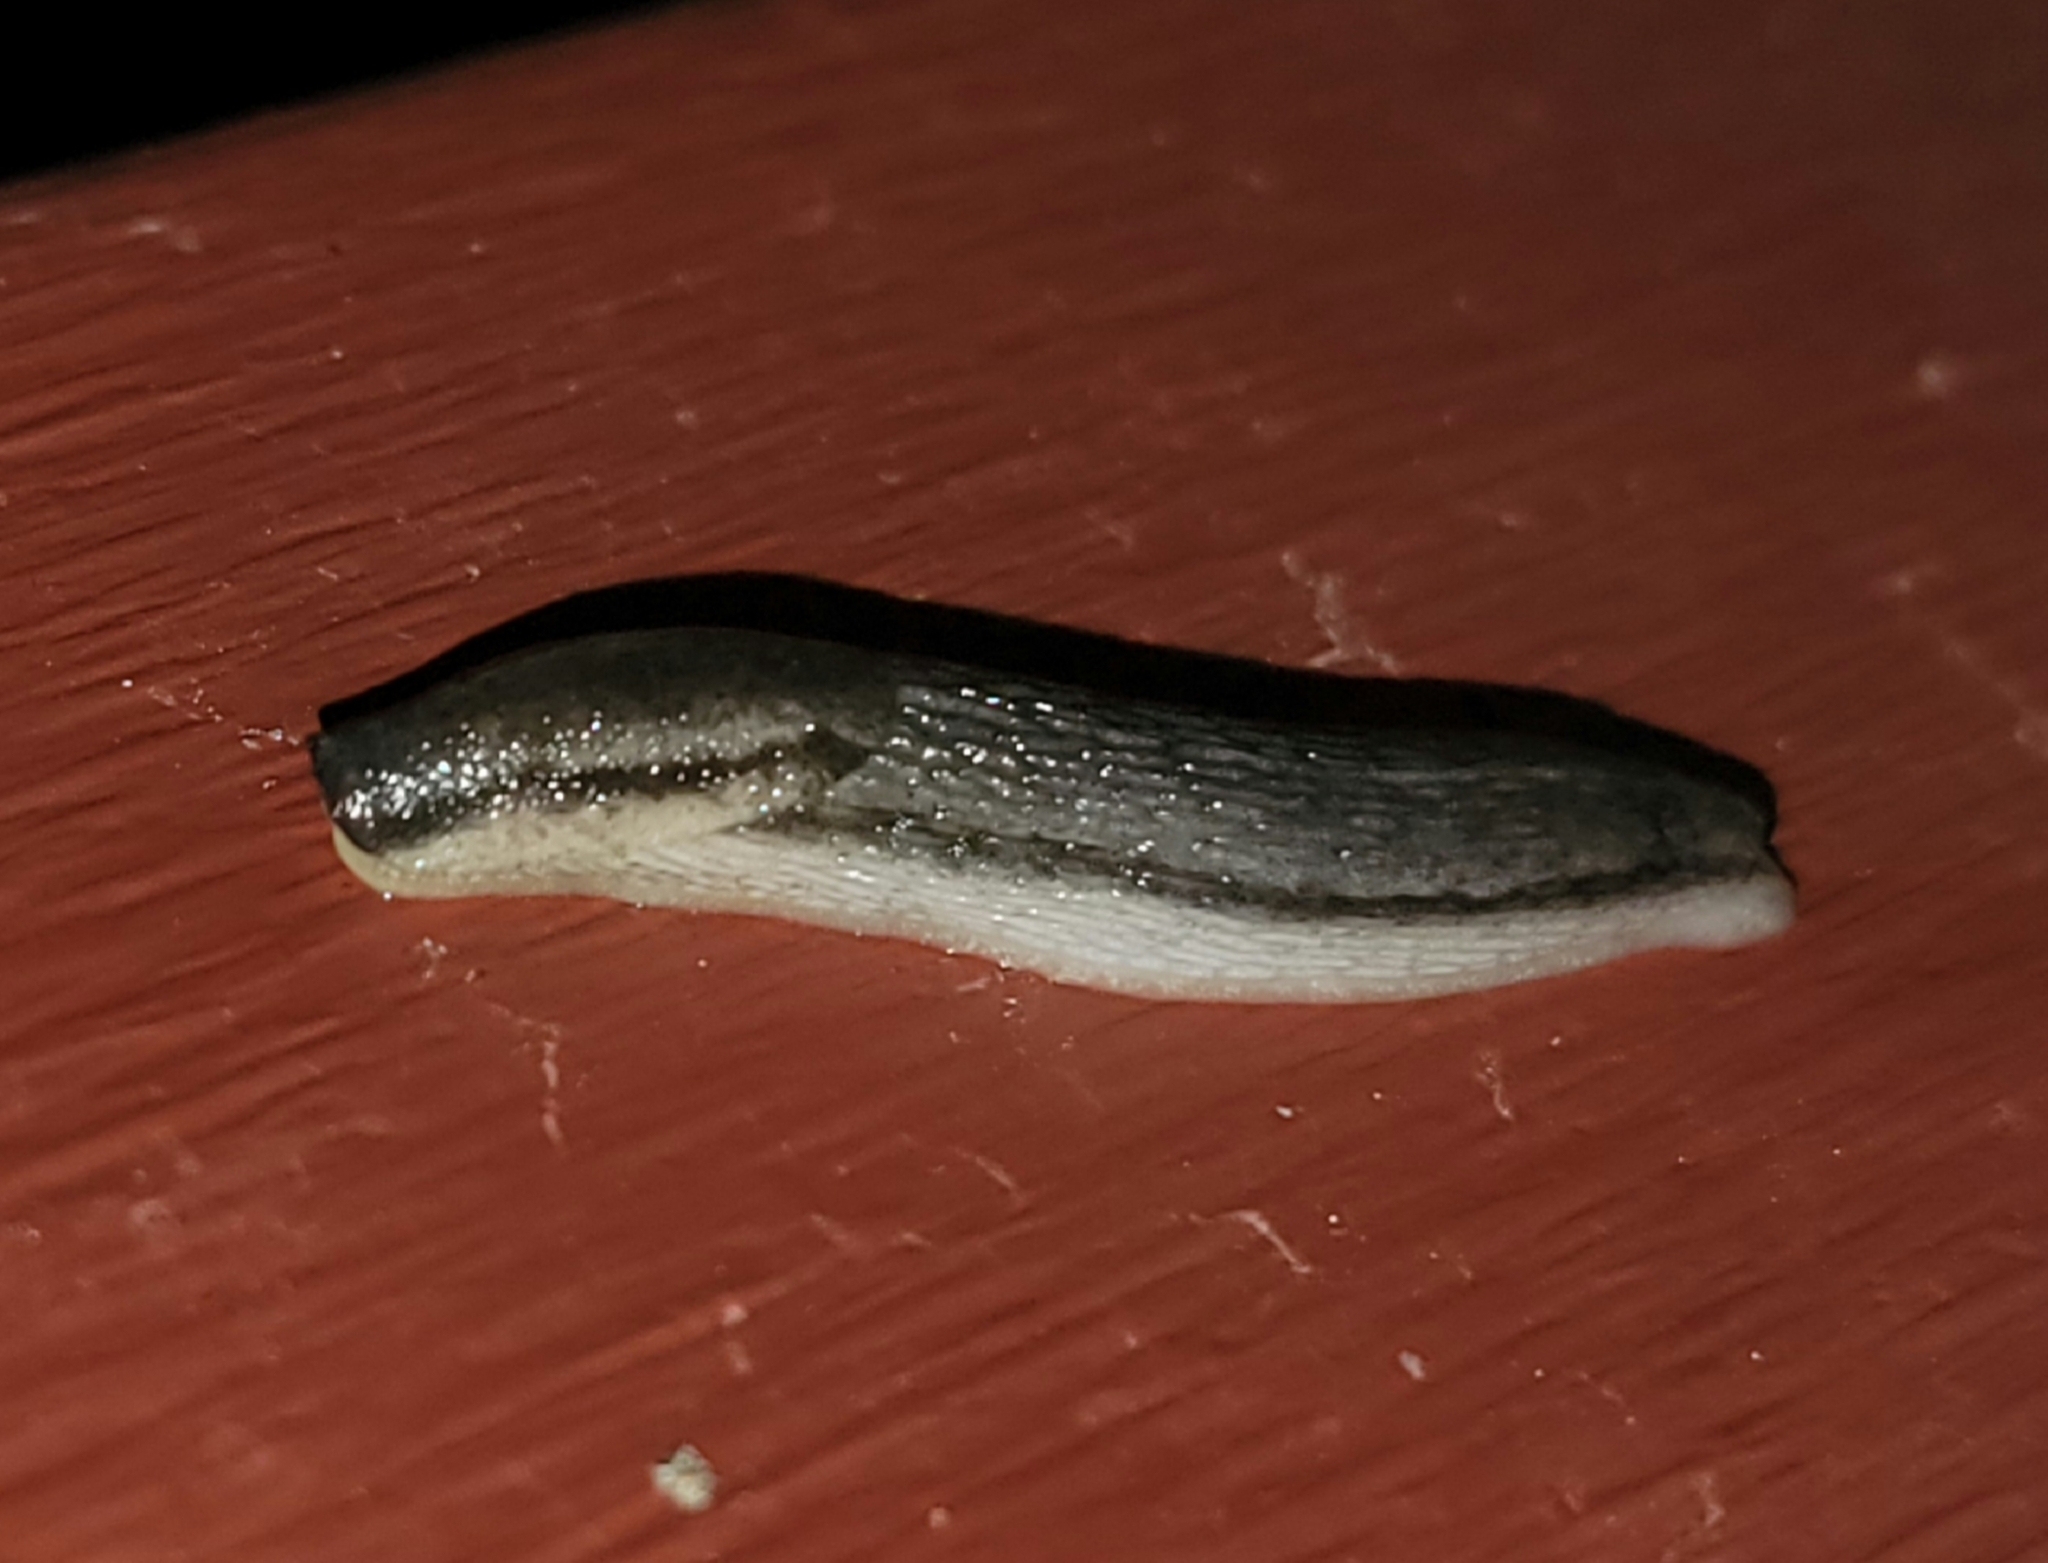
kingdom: Animalia
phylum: Mollusca
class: Gastropoda
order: Stylommatophora
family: Arionidae
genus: Arion
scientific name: Arion fasciatus
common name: Orange-banded arion
